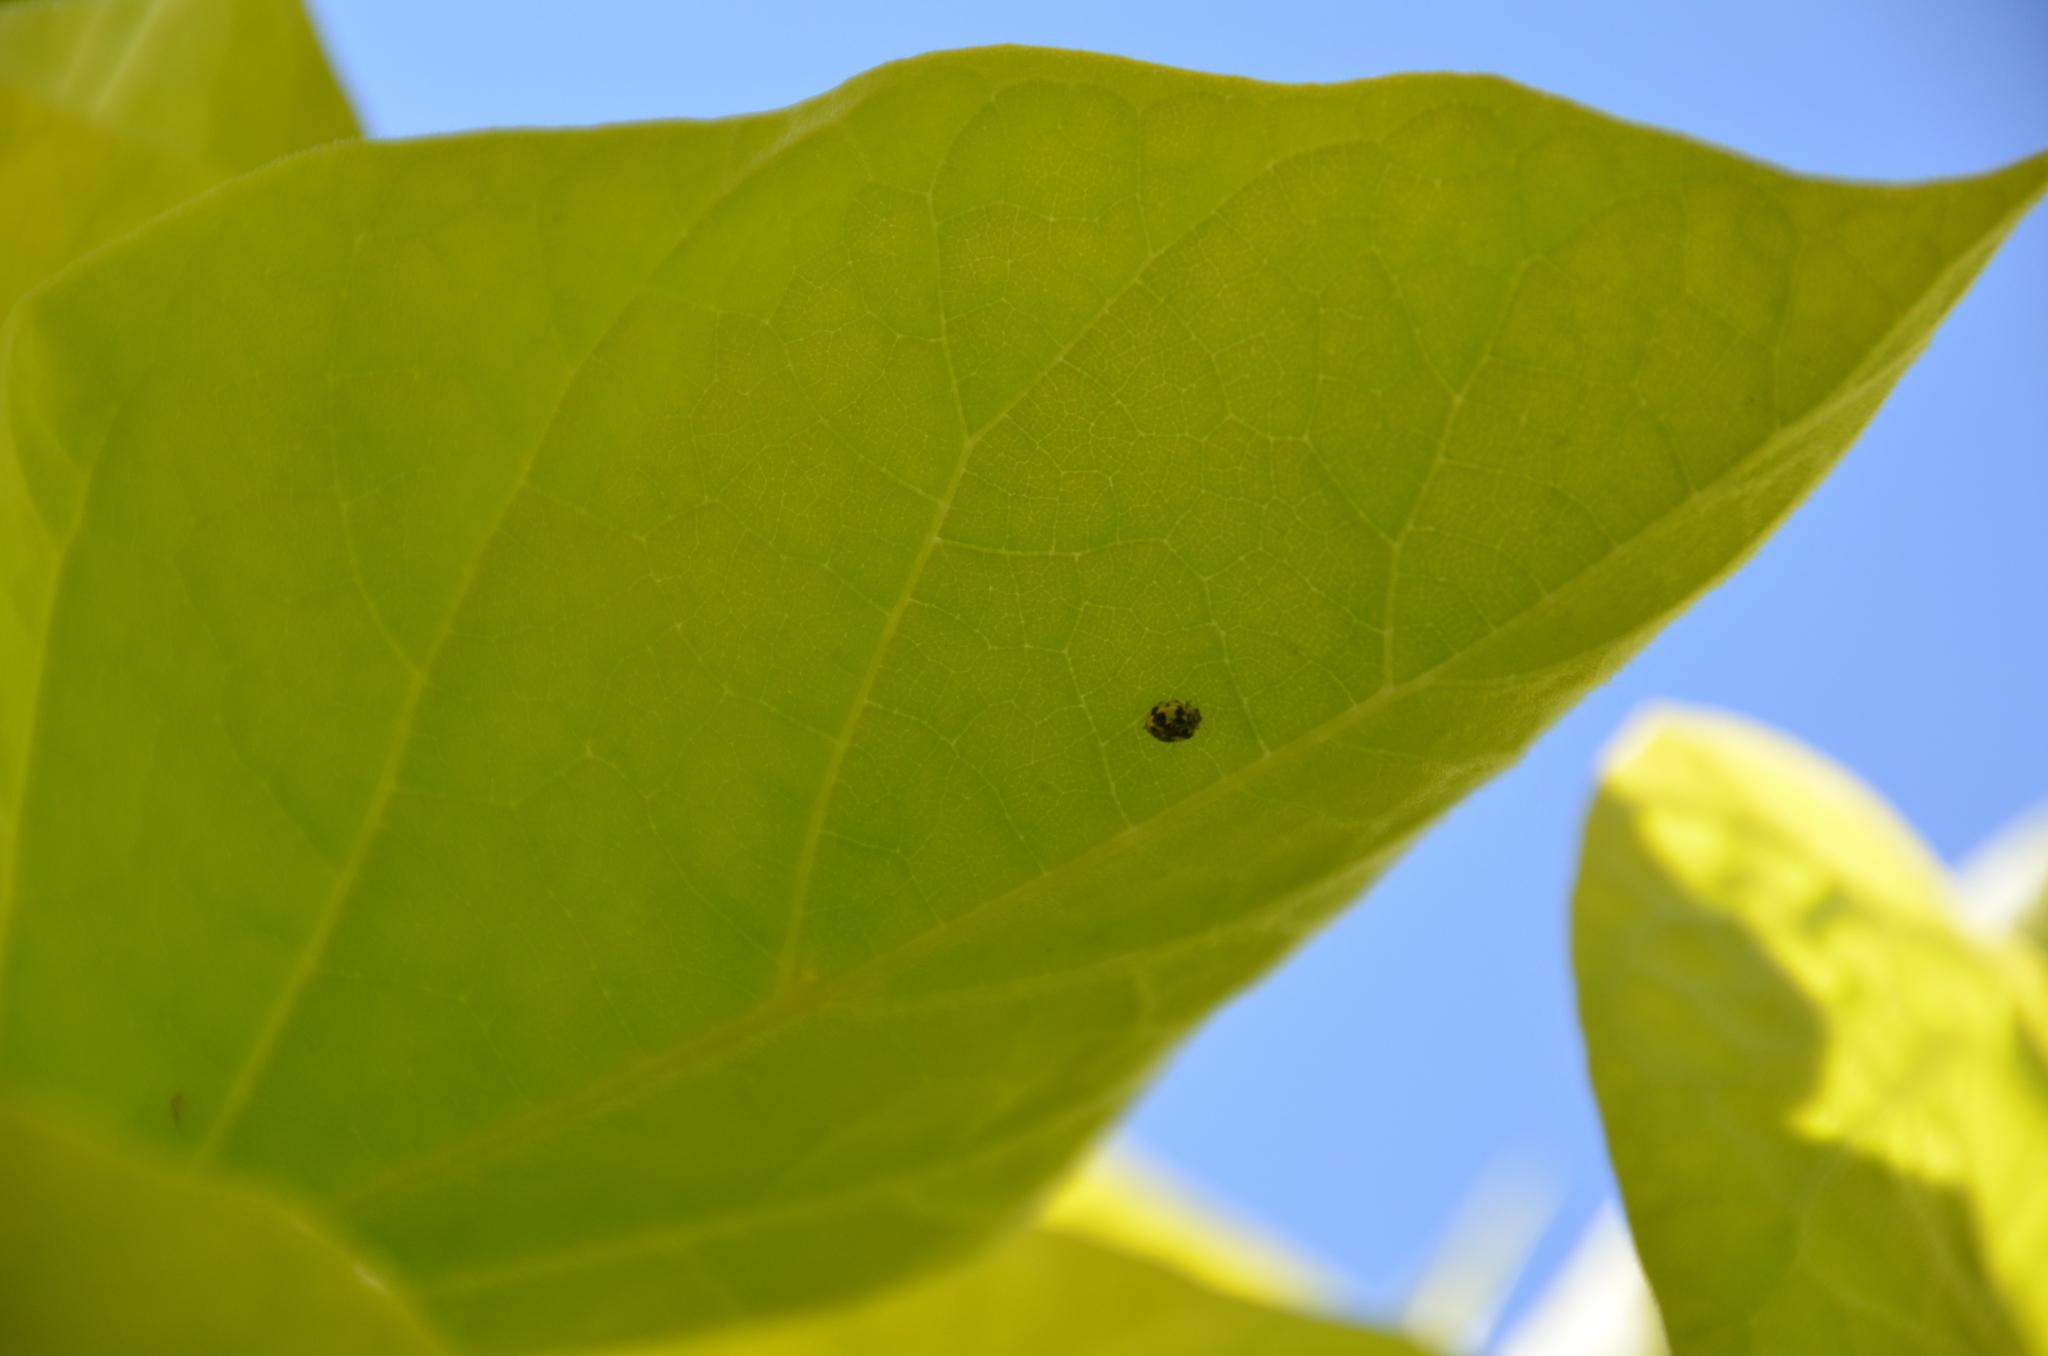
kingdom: Animalia
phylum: Arthropoda
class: Insecta
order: Coleoptera
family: Coccinellidae
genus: Psyllobora
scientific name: Psyllobora borealis
